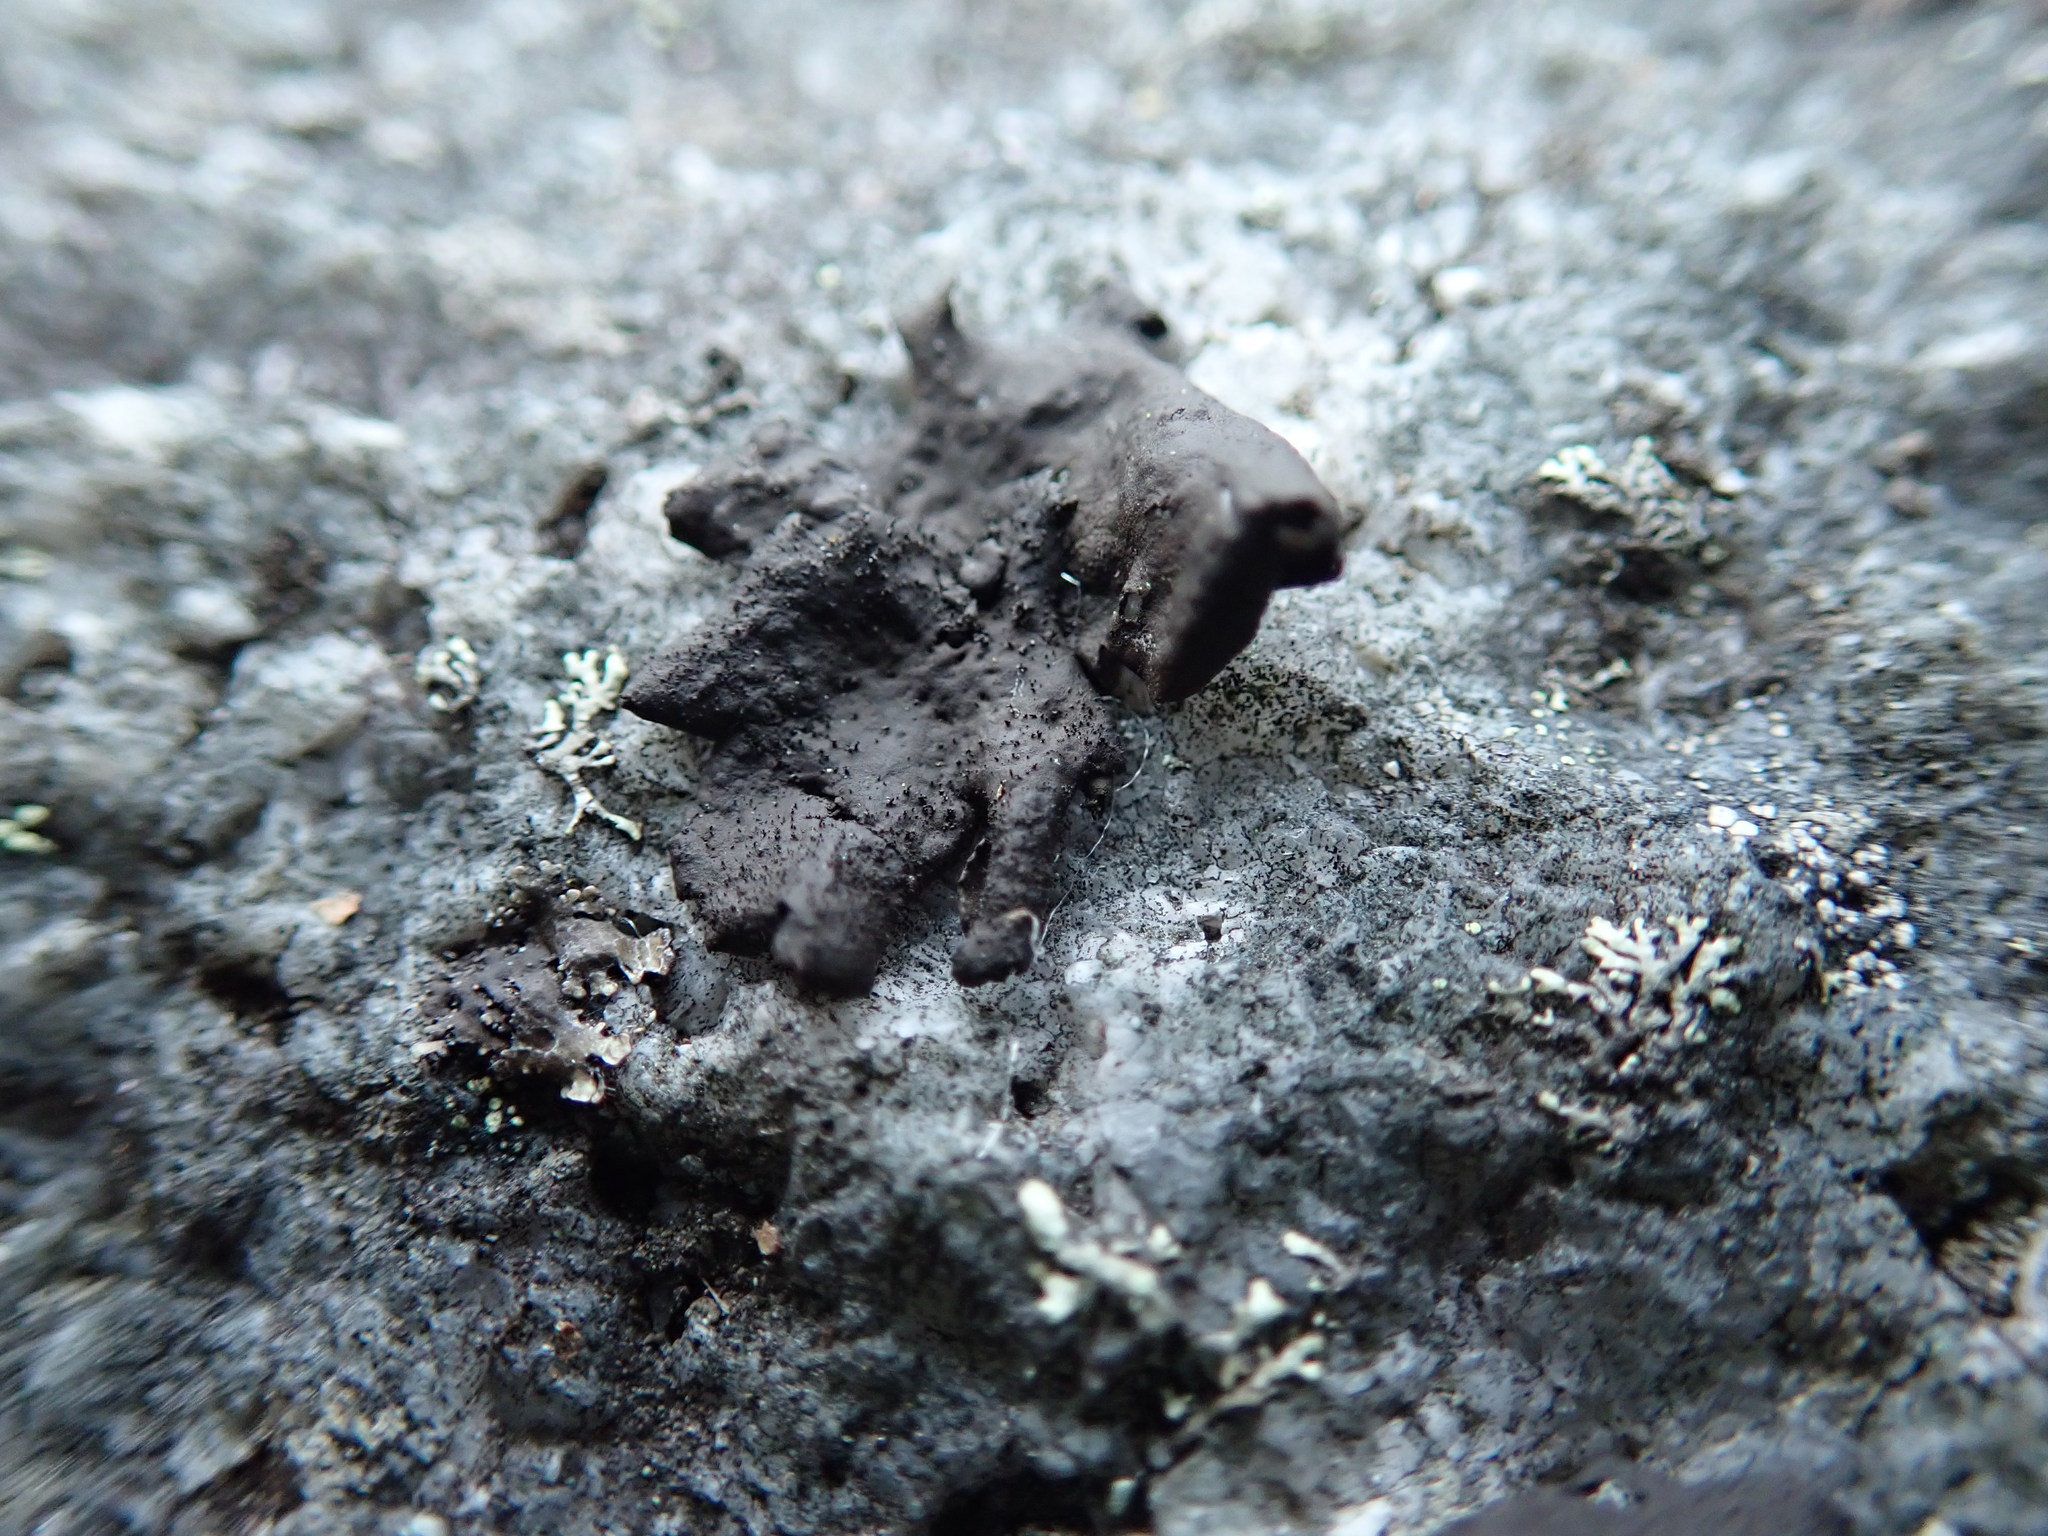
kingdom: Fungi
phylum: Ascomycota
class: Lecanoromycetes
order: Umbilicariales
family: Umbilicariaceae
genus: Umbilicaria
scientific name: Umbilicaria deusta
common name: Peppered rock tripe
